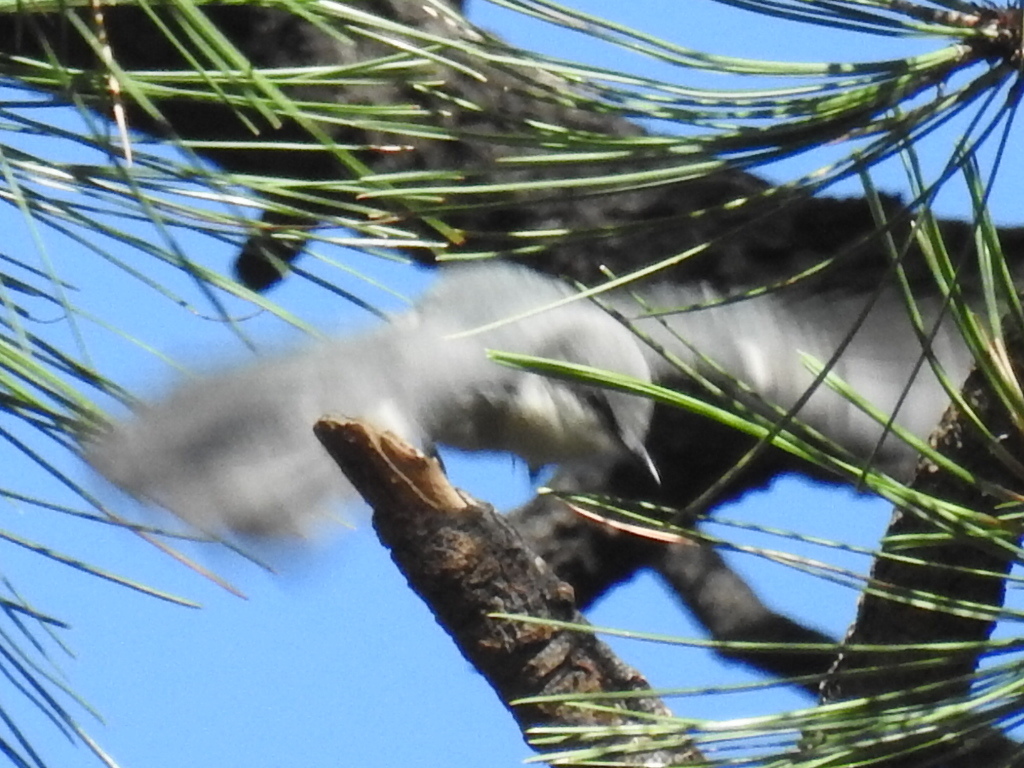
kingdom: Animalia
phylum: Chordata
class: Aves
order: Passeriformes
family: Sittidae
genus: Sitta
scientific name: Sitta pygmaea
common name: Pygmy nuthatch
